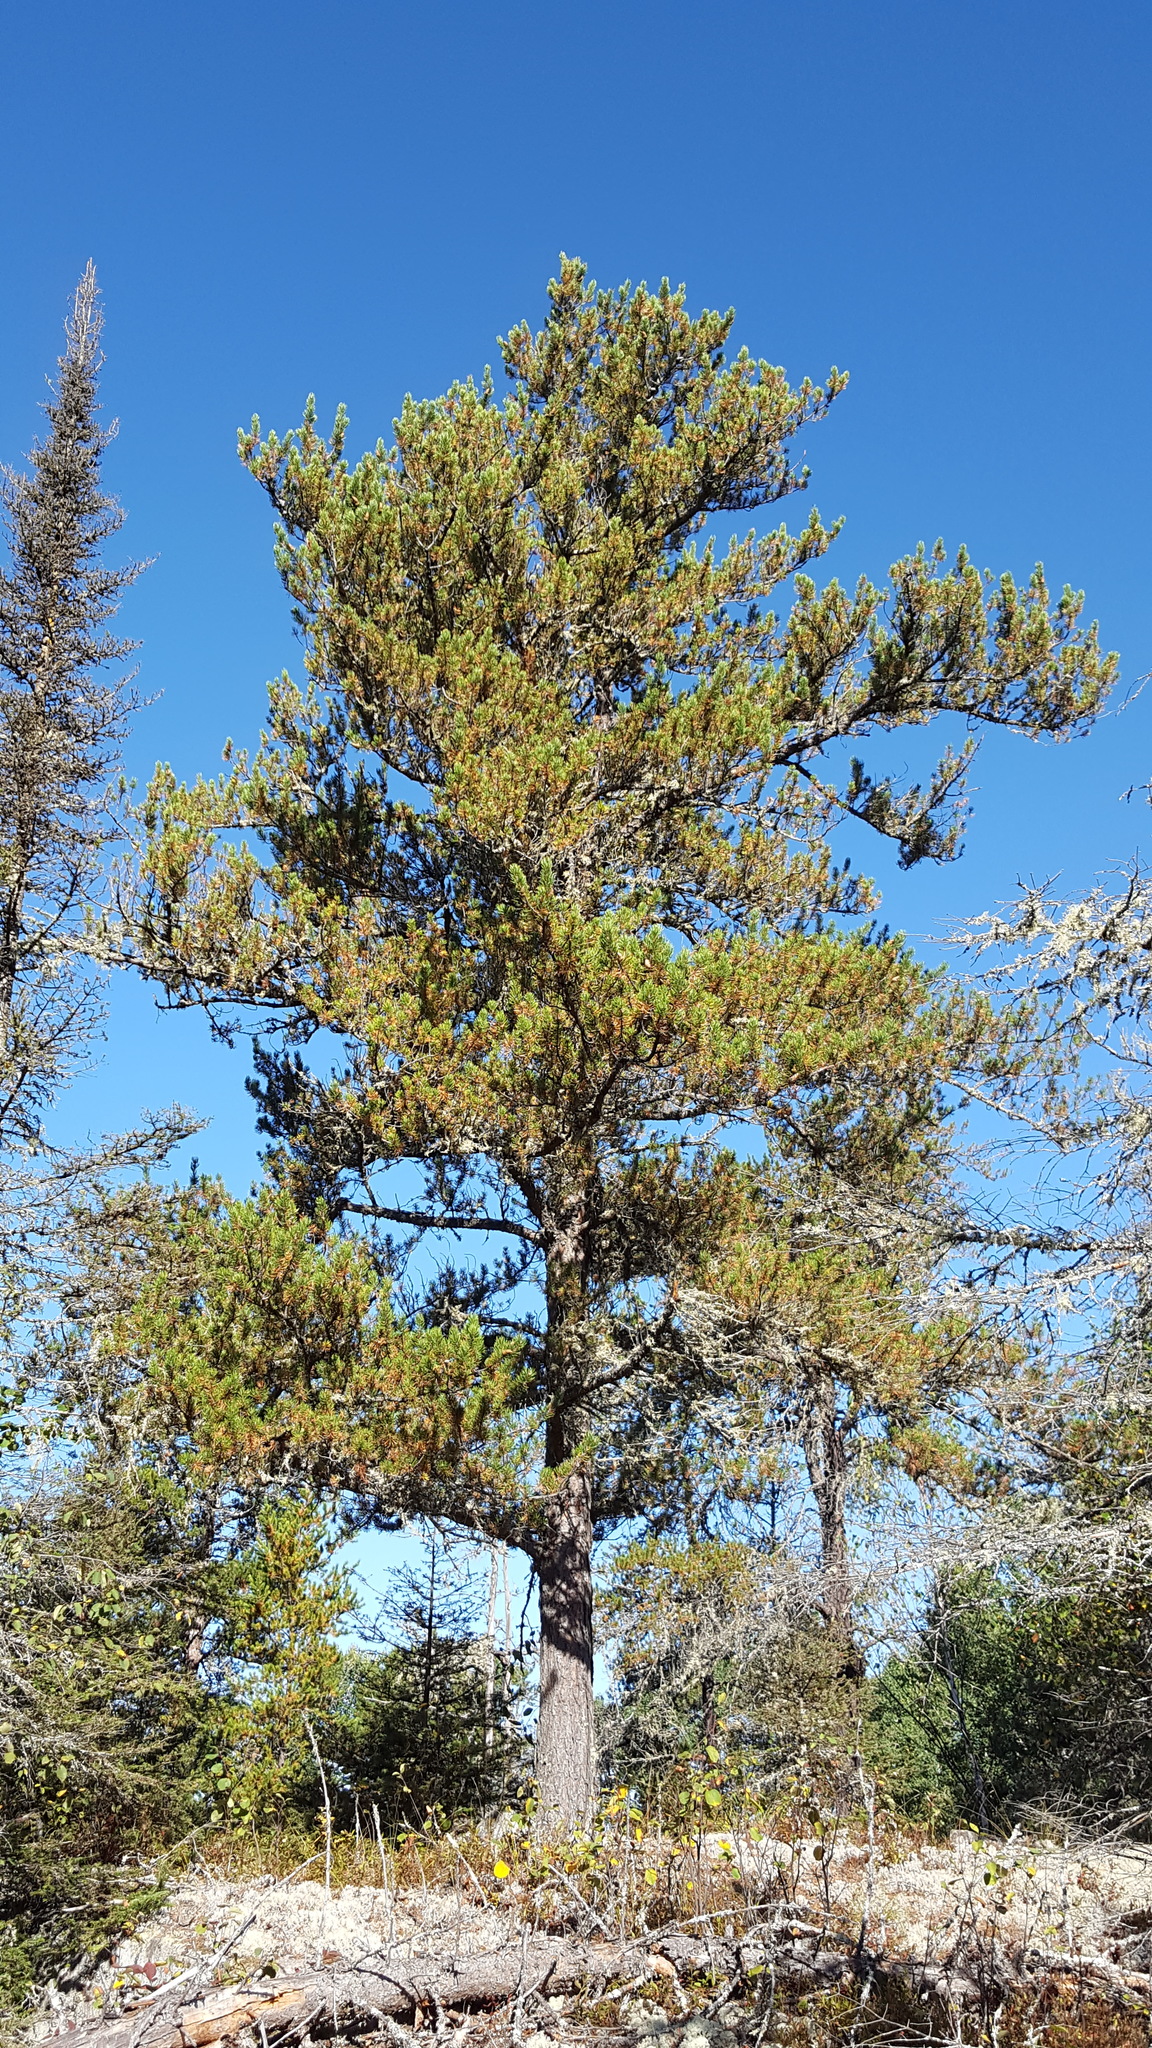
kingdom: Plantae
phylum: Tracheophyta
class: Pinopsida
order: Pinales
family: Pinaceae
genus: Pinus
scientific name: Pinus banksiana
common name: Jack pine
